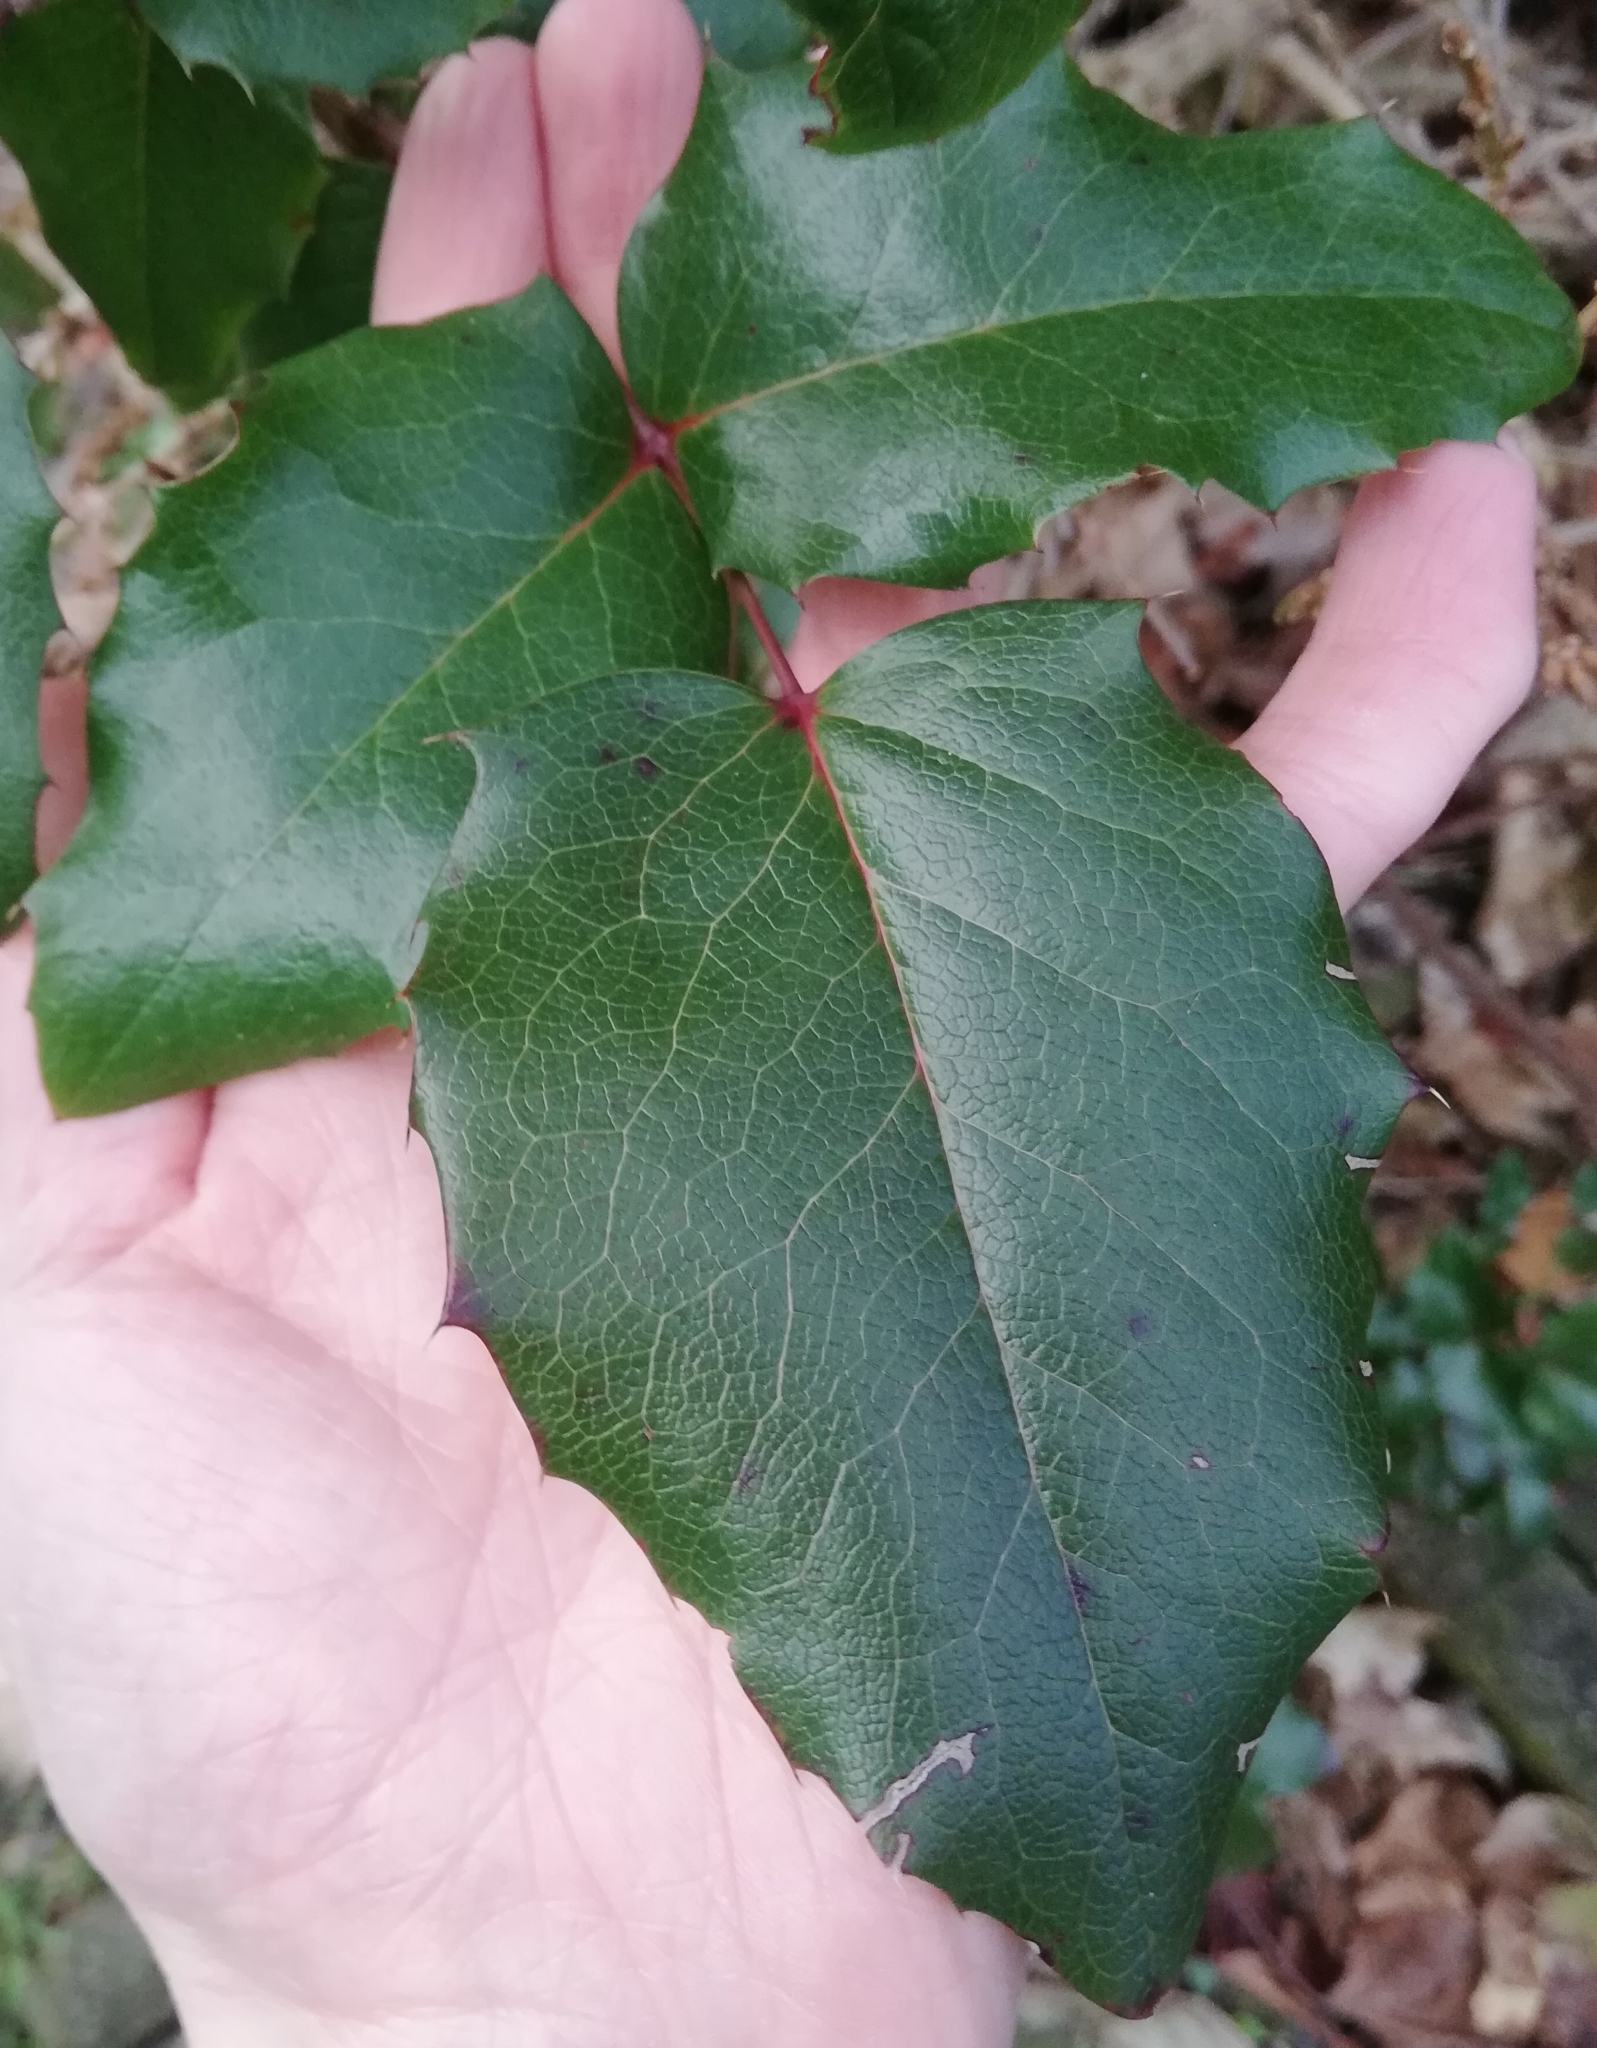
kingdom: Plantae
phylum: Tracheophyta
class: Magnoliopsida
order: Ranunculales
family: Berberidaceae
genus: Mahonia
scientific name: Mahonia aquifolium
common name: Oregon-grape
